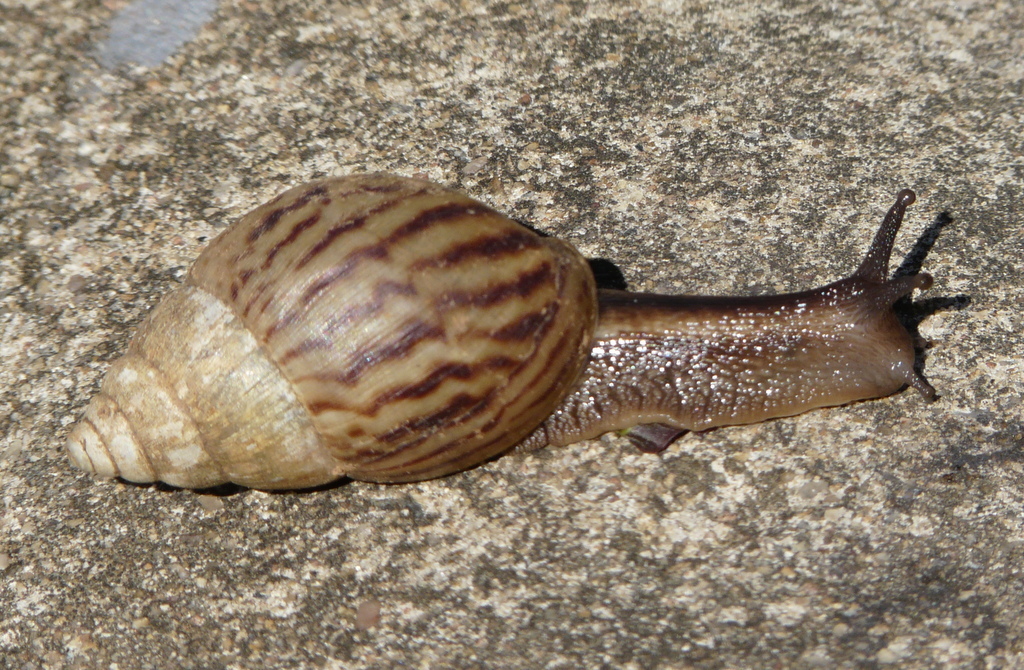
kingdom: Animalia
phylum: Mollusca
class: Gastropoda
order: Stylommatophora
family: Achatinidae
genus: Achatina
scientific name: Achatina schinziana
